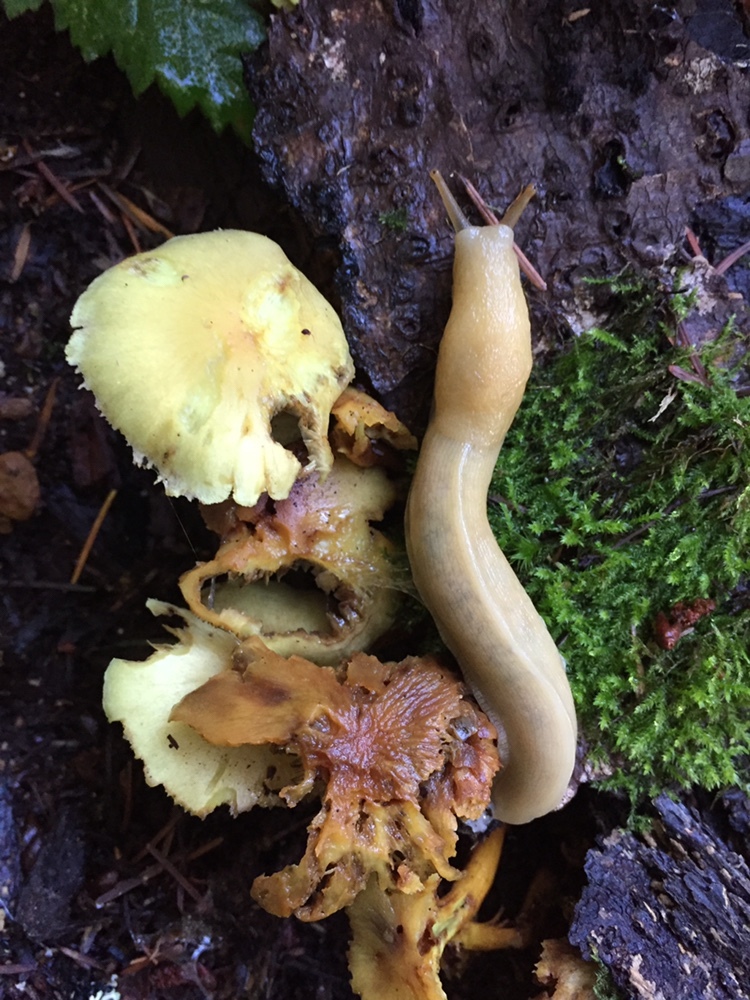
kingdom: Animalia
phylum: Mollusca
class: Gastropoda
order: Stylommatophora
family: Ariolimacidae
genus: Ariolimax
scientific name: Ariolimax columbianus
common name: Pacific banana slug
